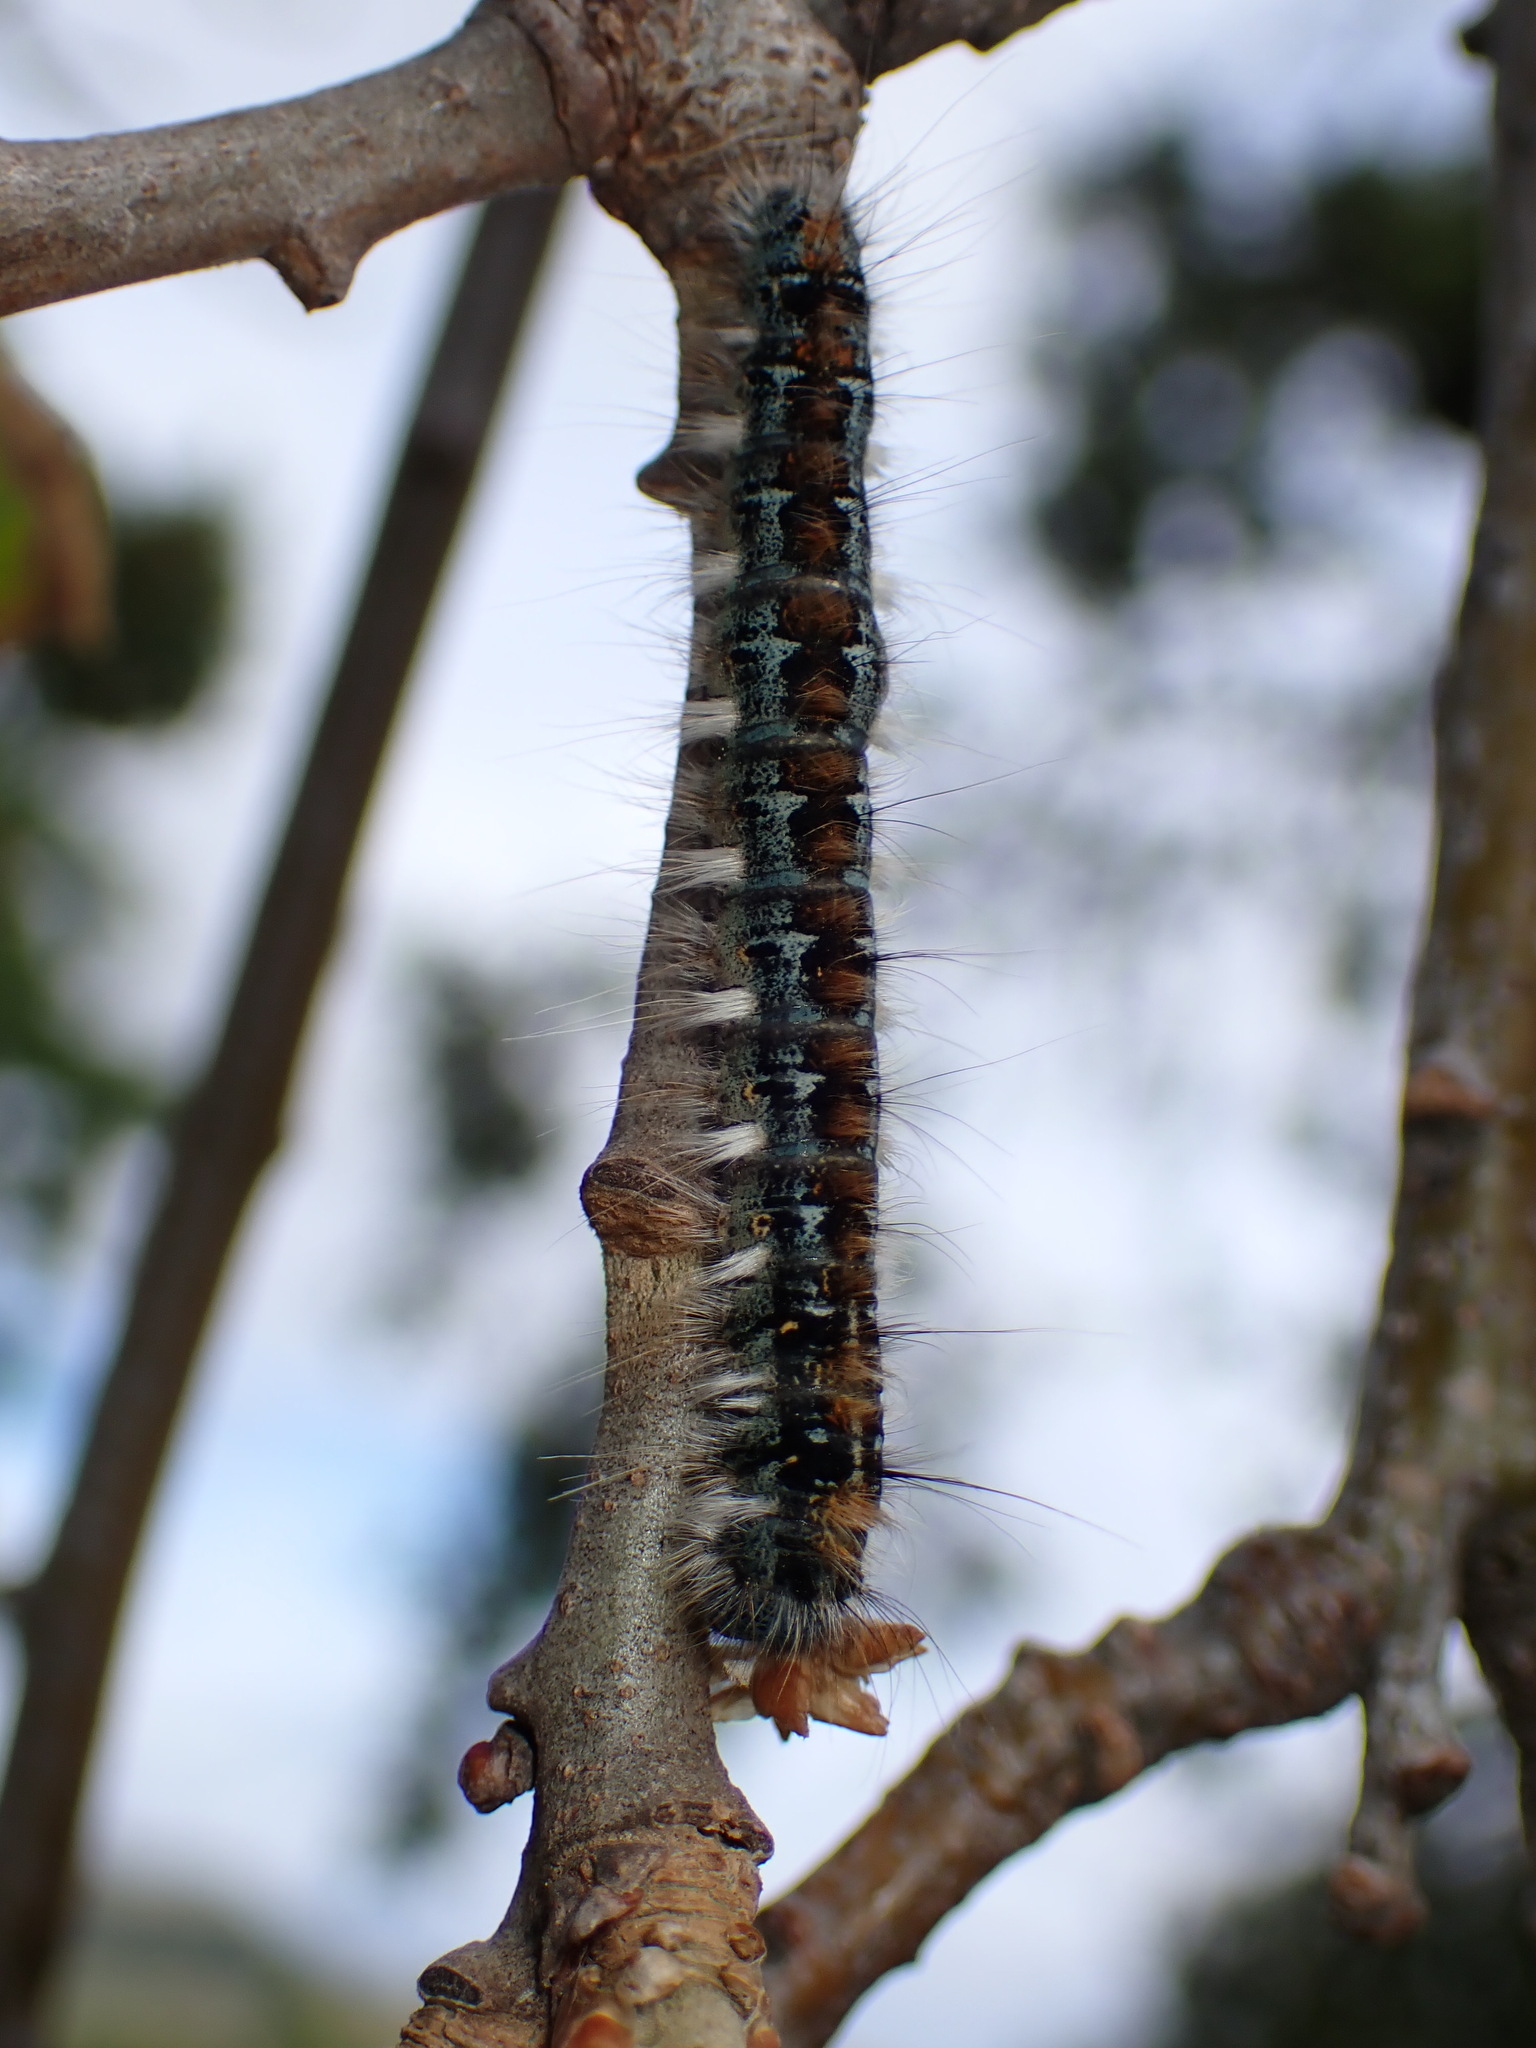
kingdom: Animalia
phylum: Arthropoda
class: Insecta
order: Lepidoptera
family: Lasiocampidae
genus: Malacosoma
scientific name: Malacosoma constricta
